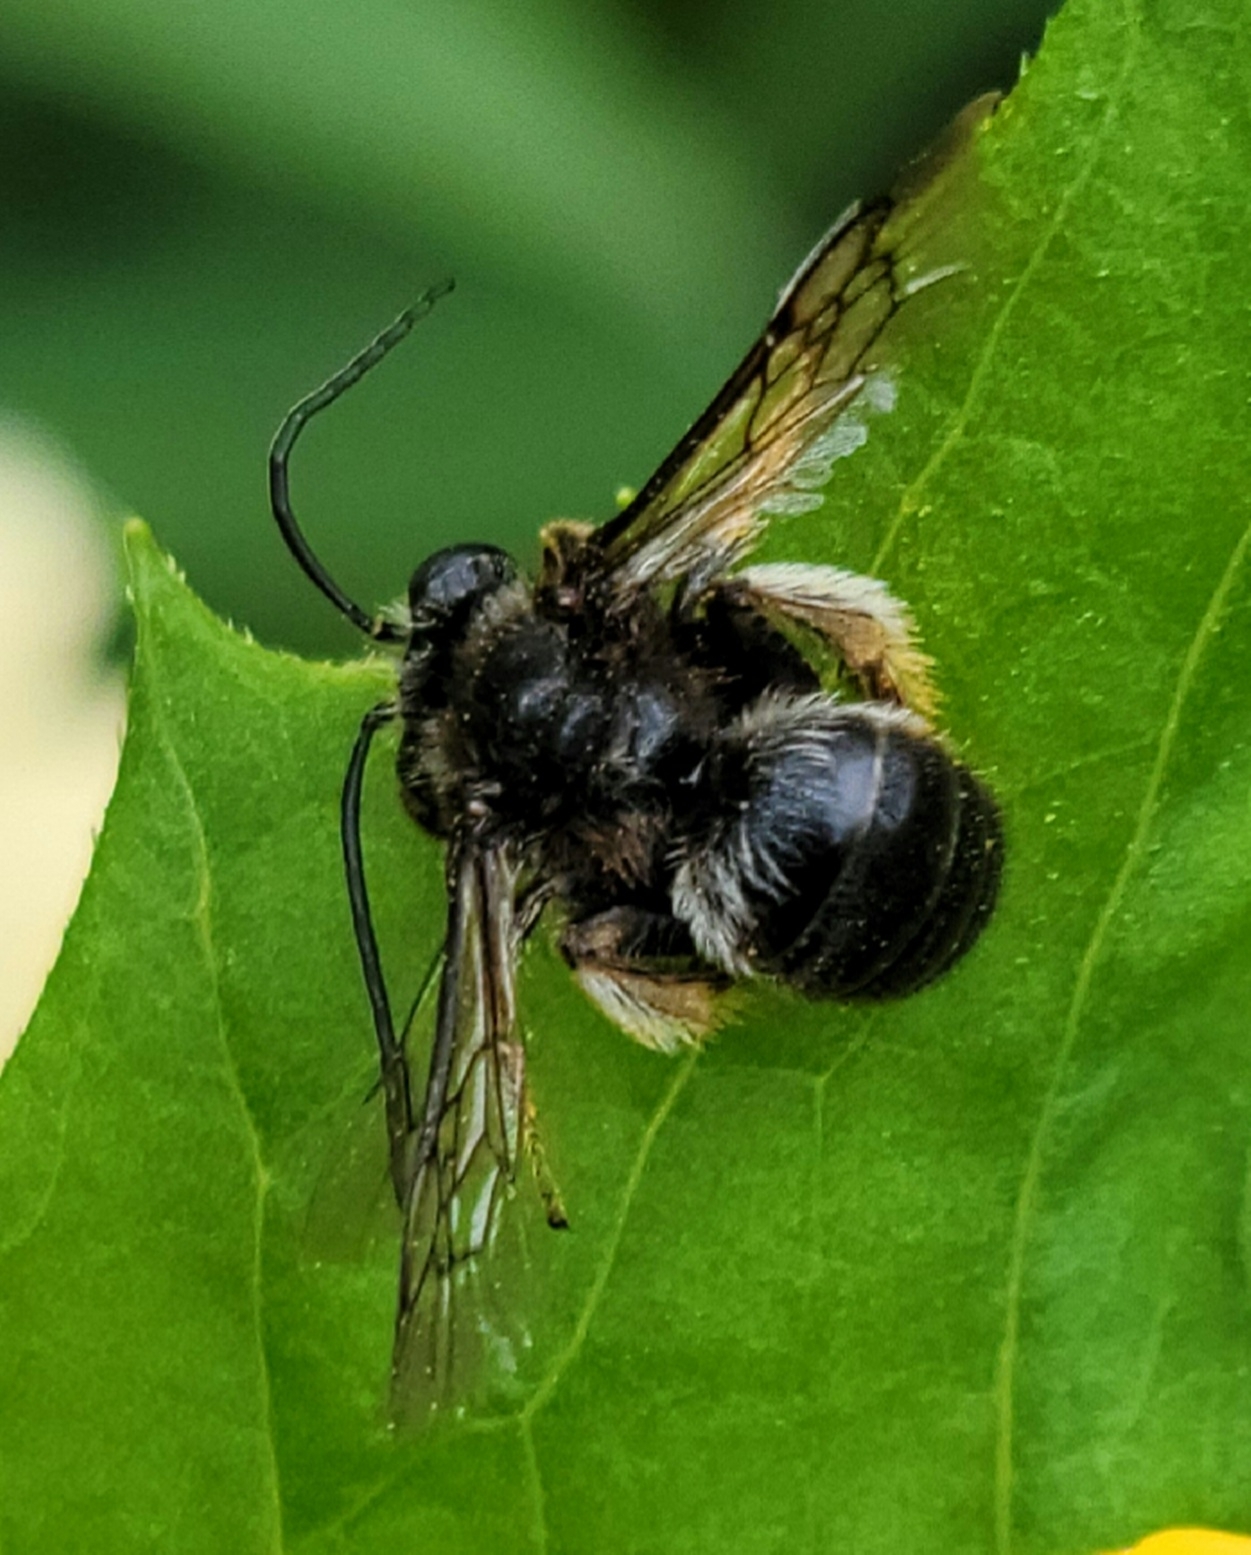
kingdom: Animalia
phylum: Arthropoda
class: Insecta
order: Hymenoptera
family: Apidae
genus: Melissodes
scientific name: Melissodes bimaculatus
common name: Two-spotted long-horned bee
